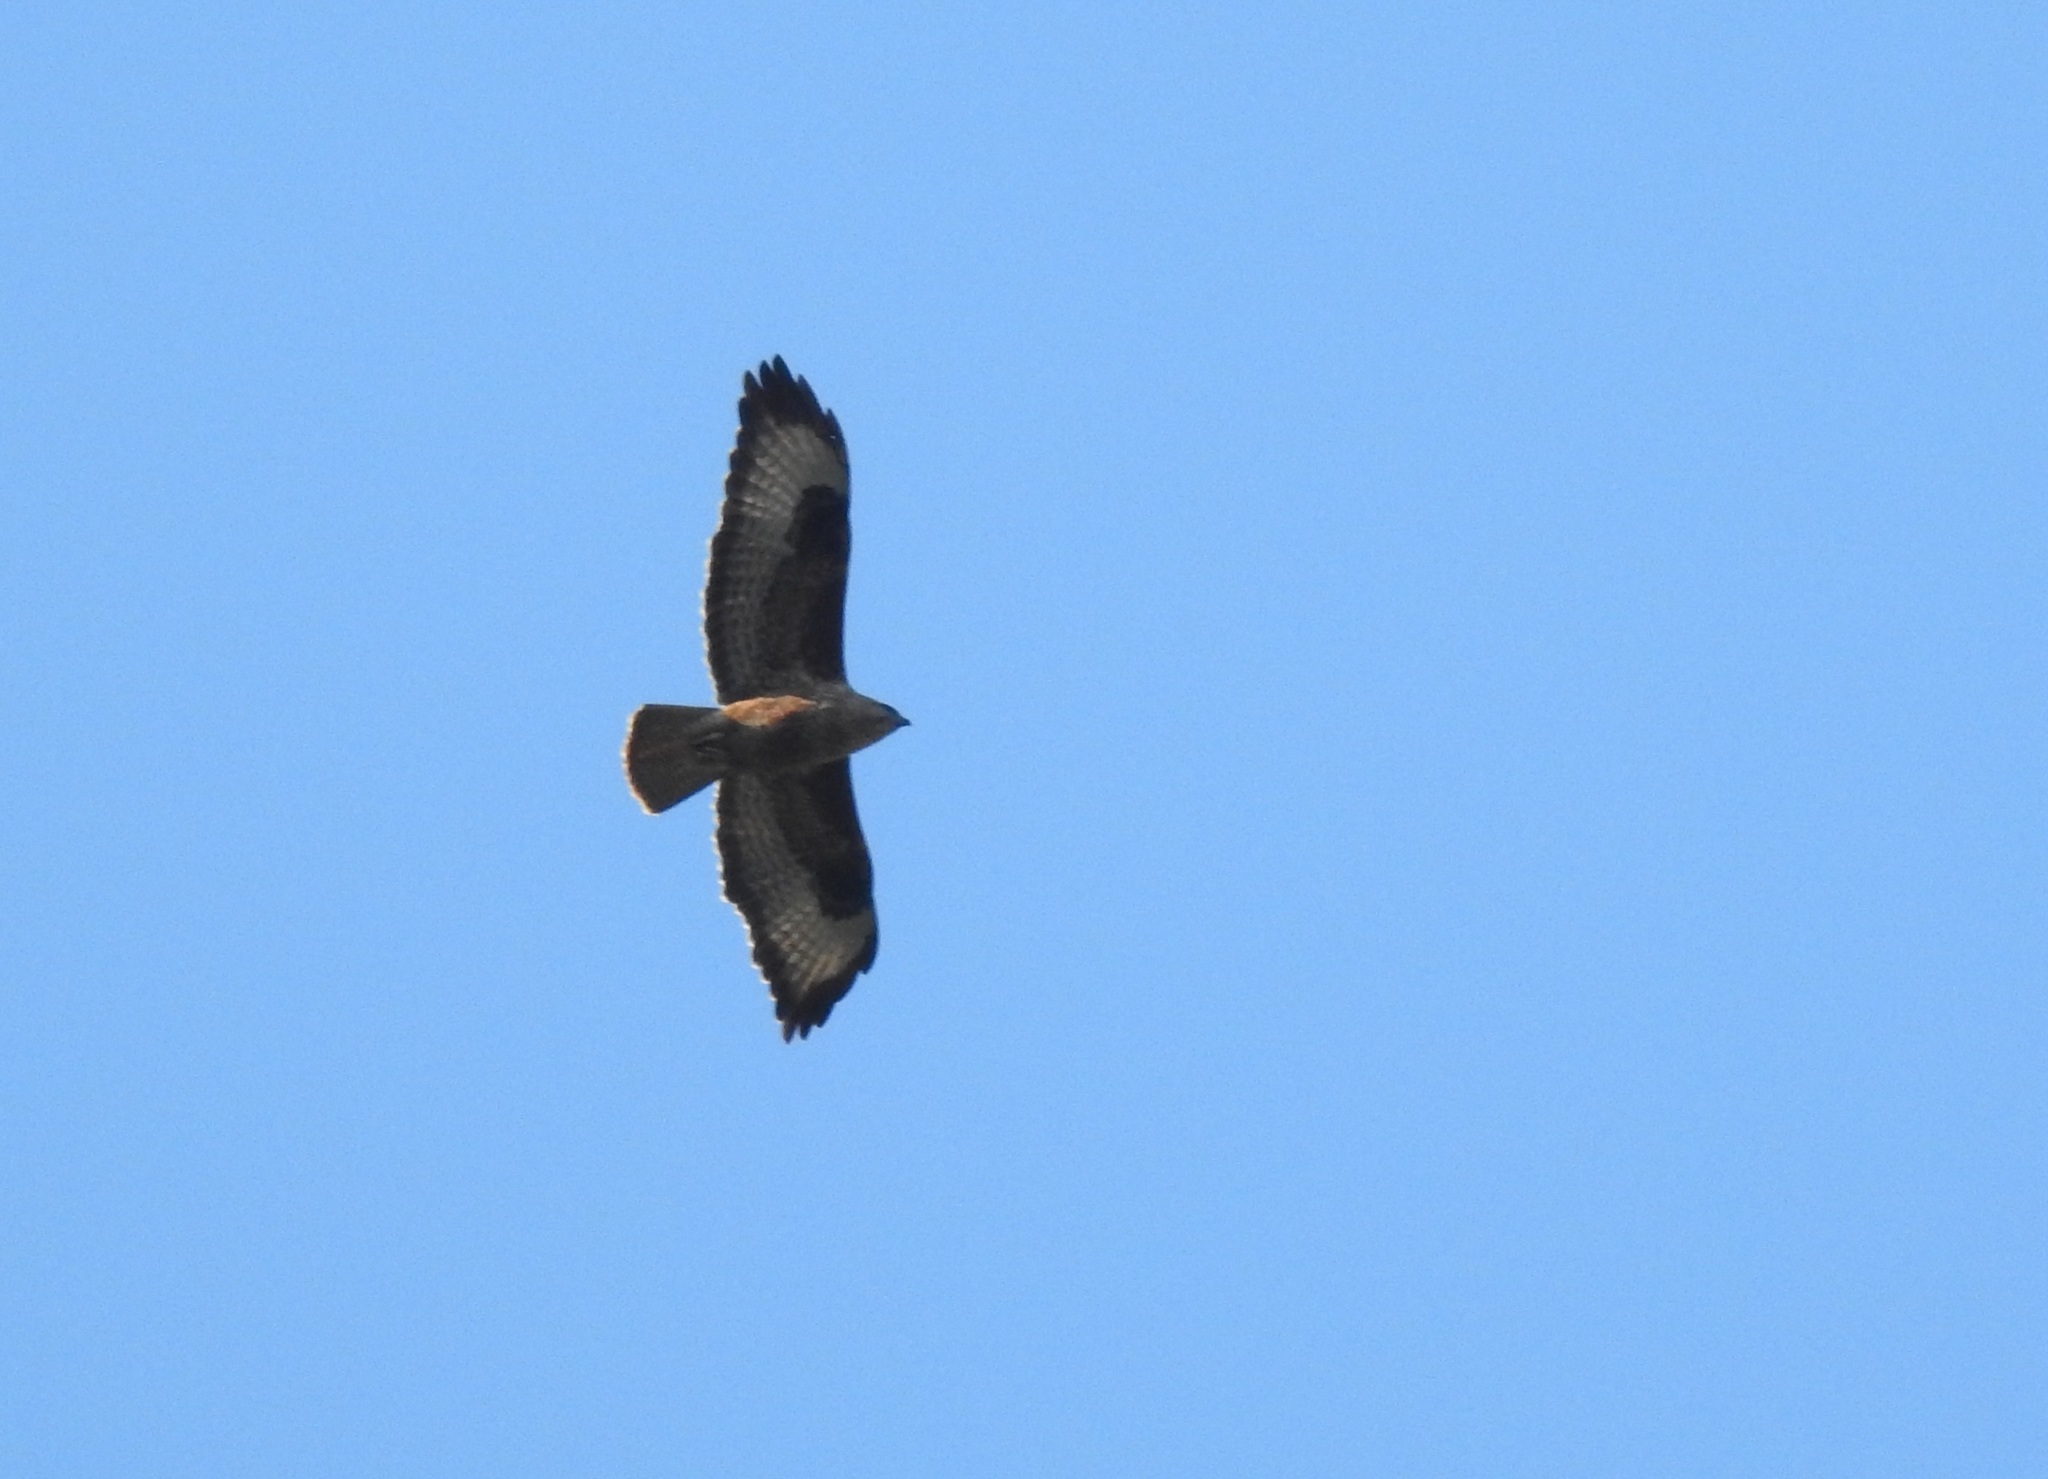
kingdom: Animalia
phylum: Chordata
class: Aves
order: Accipitriformes
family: Accipitridae
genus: Buteo
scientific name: Buteo rufinus
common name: Long-legged buzzard
